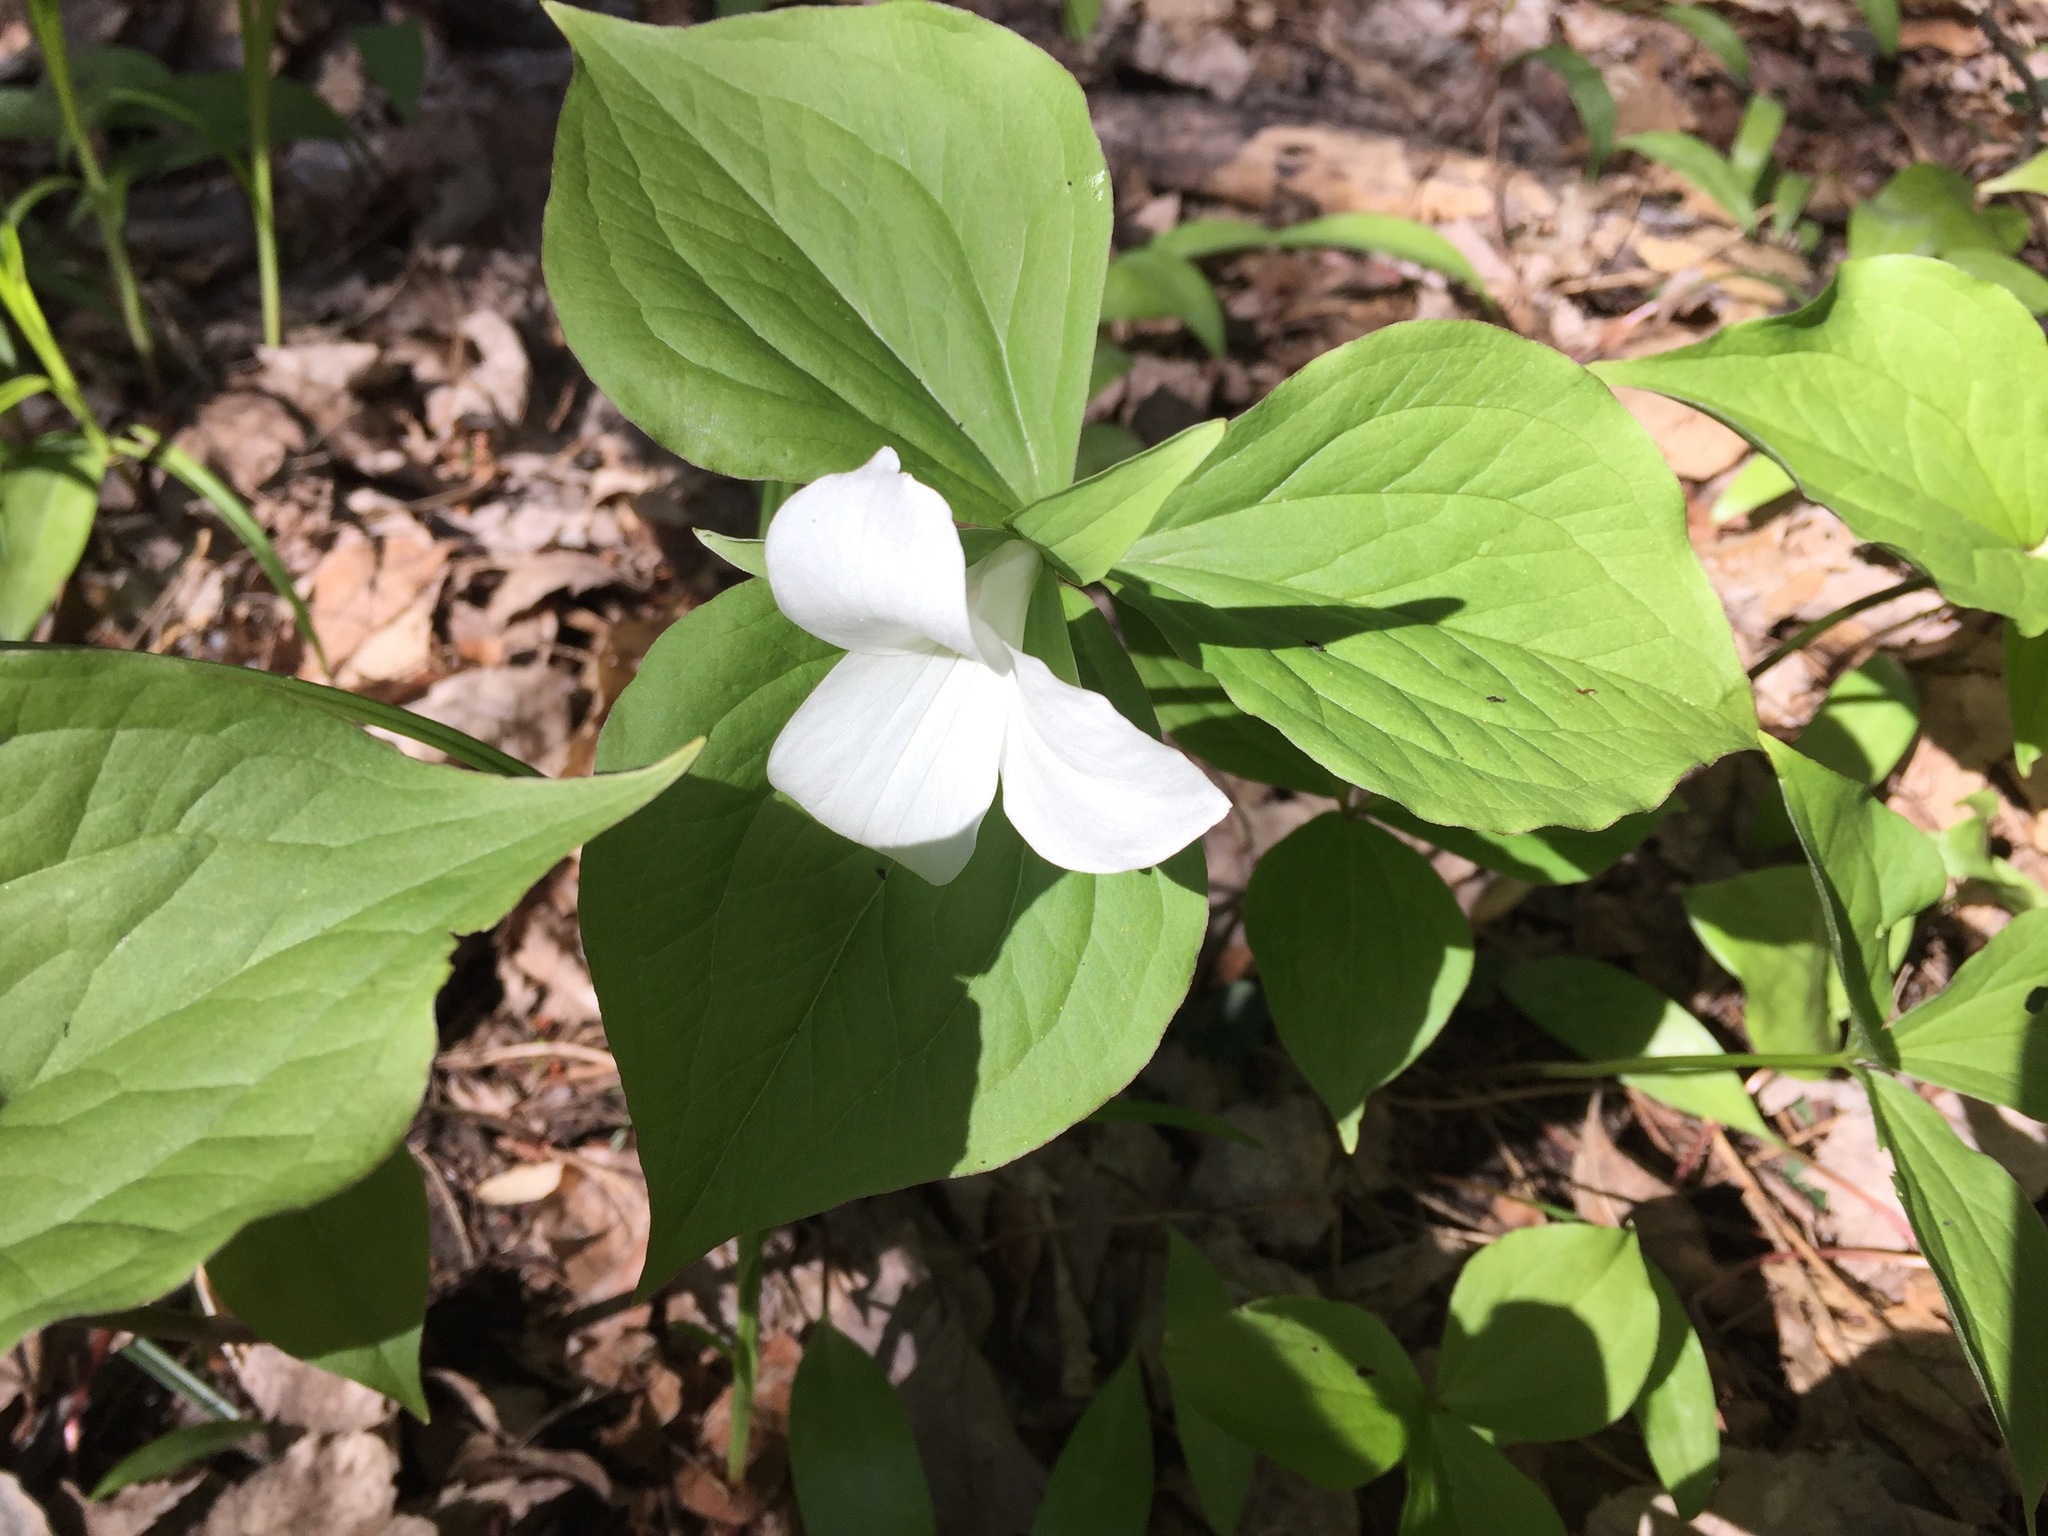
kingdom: Plantae
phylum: Tracheophyta
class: Liliopsida
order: Liliales
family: Melanthiaceae
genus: Trillium
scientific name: Trillium grandiflorum
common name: Great white trillium
